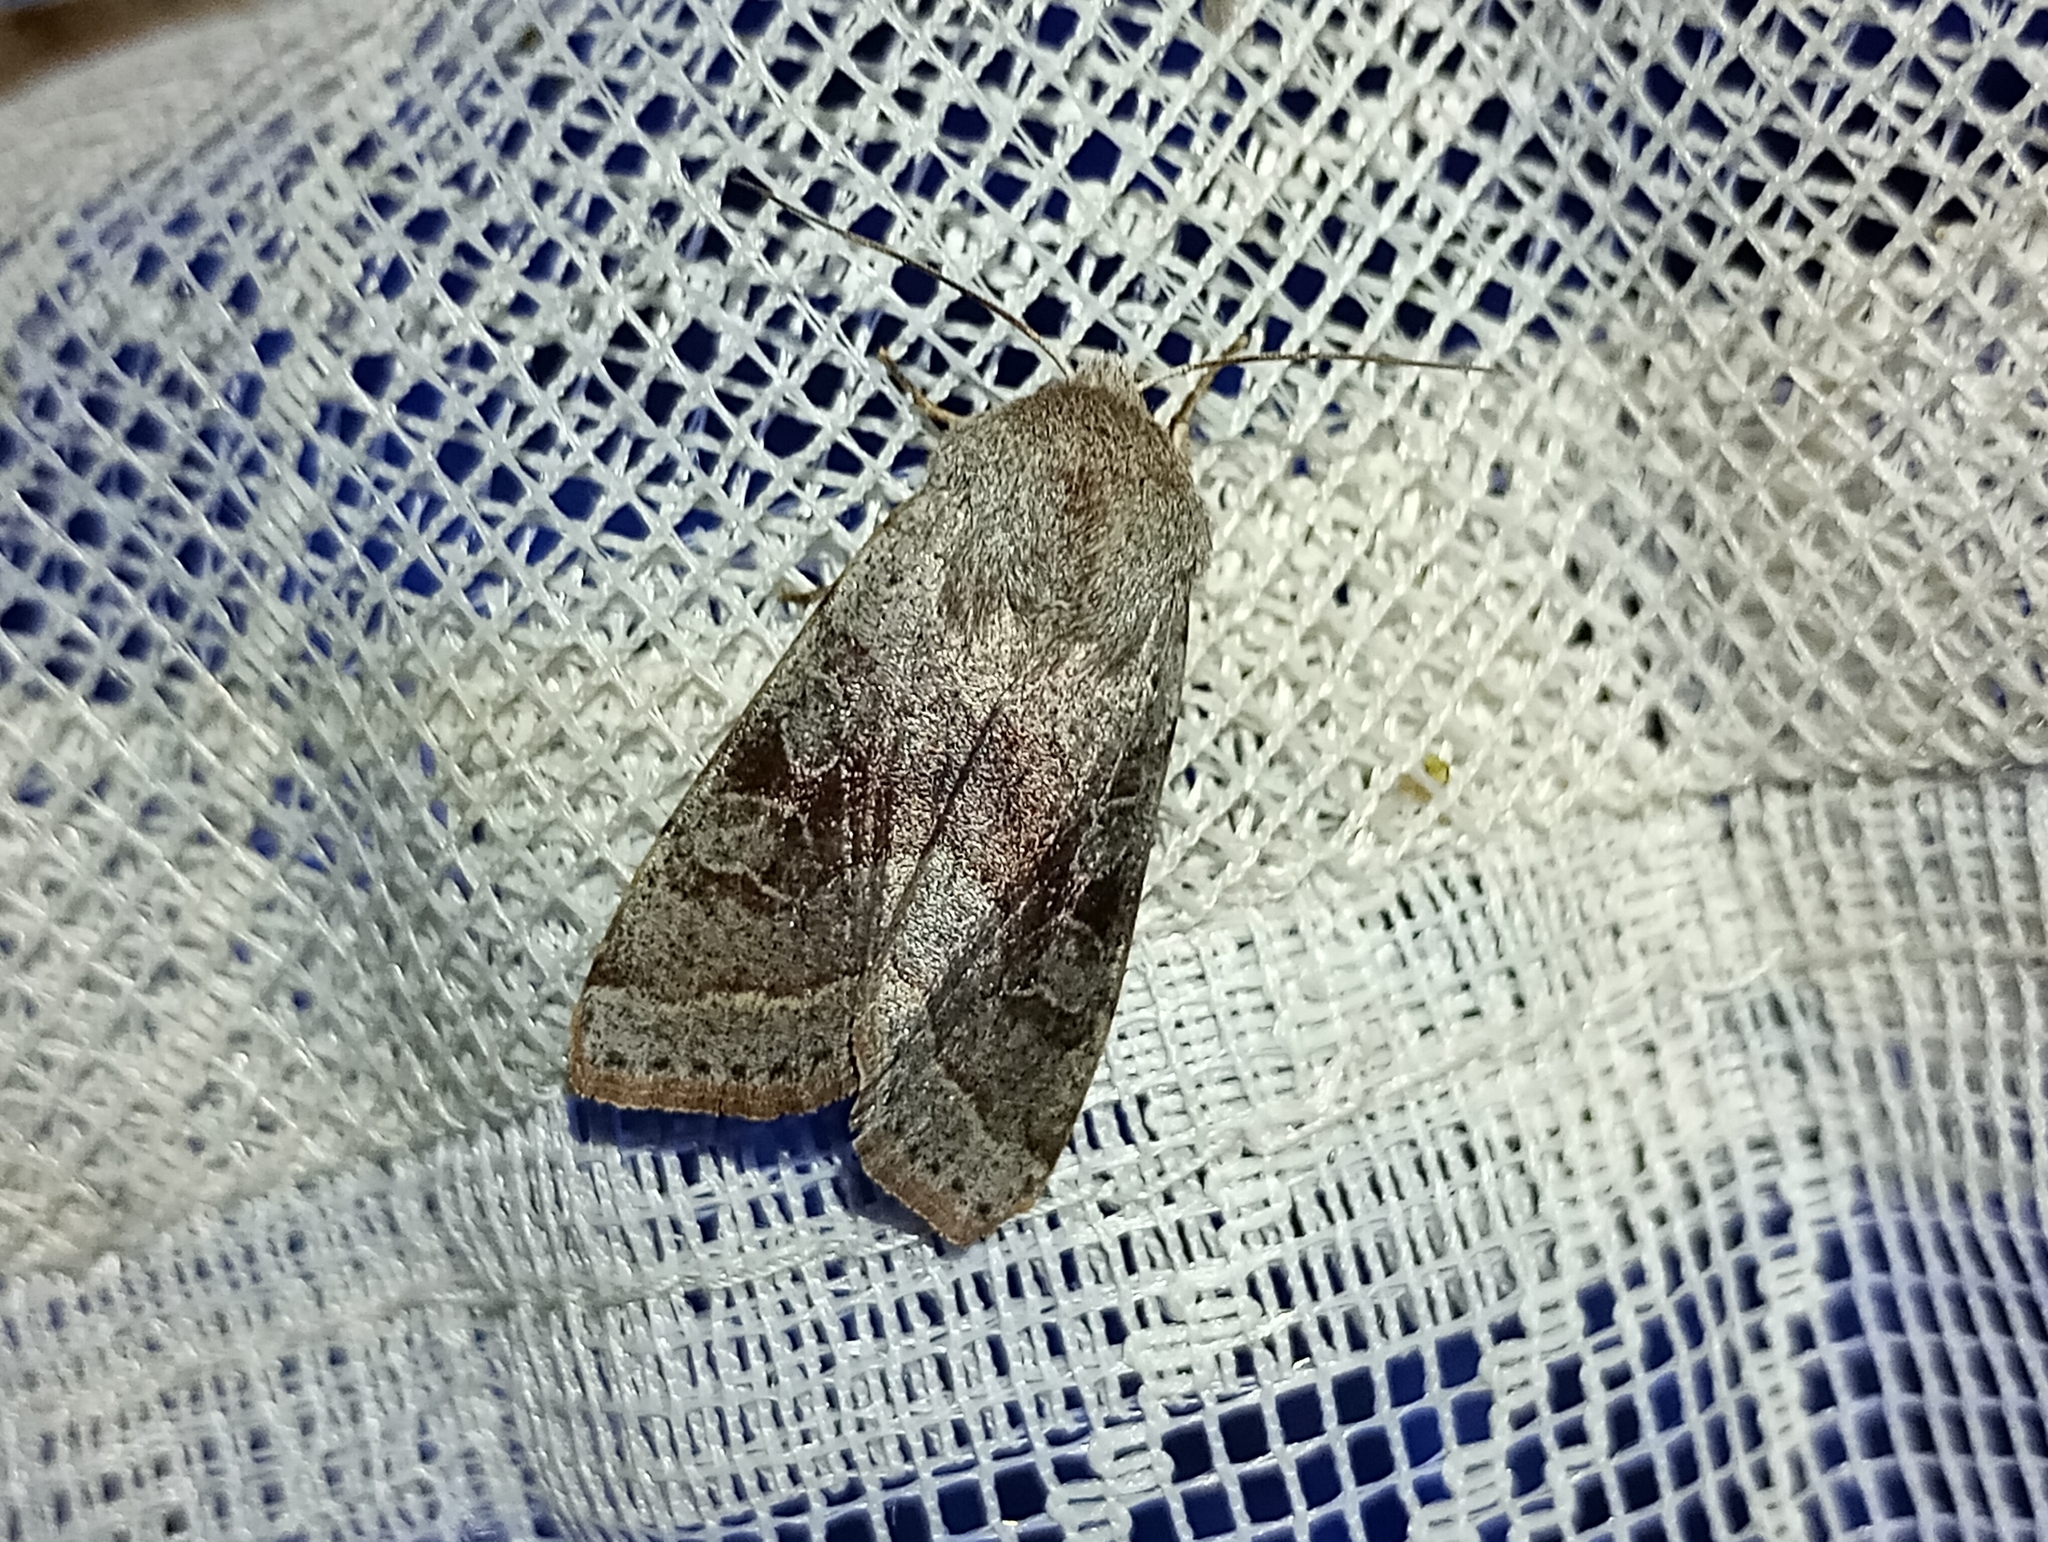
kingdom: Animalia
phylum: Arthropoda
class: Insecta
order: Lepidoptera
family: Noctuidae
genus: Orthosia
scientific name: Orthosia opima
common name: Northern drab
